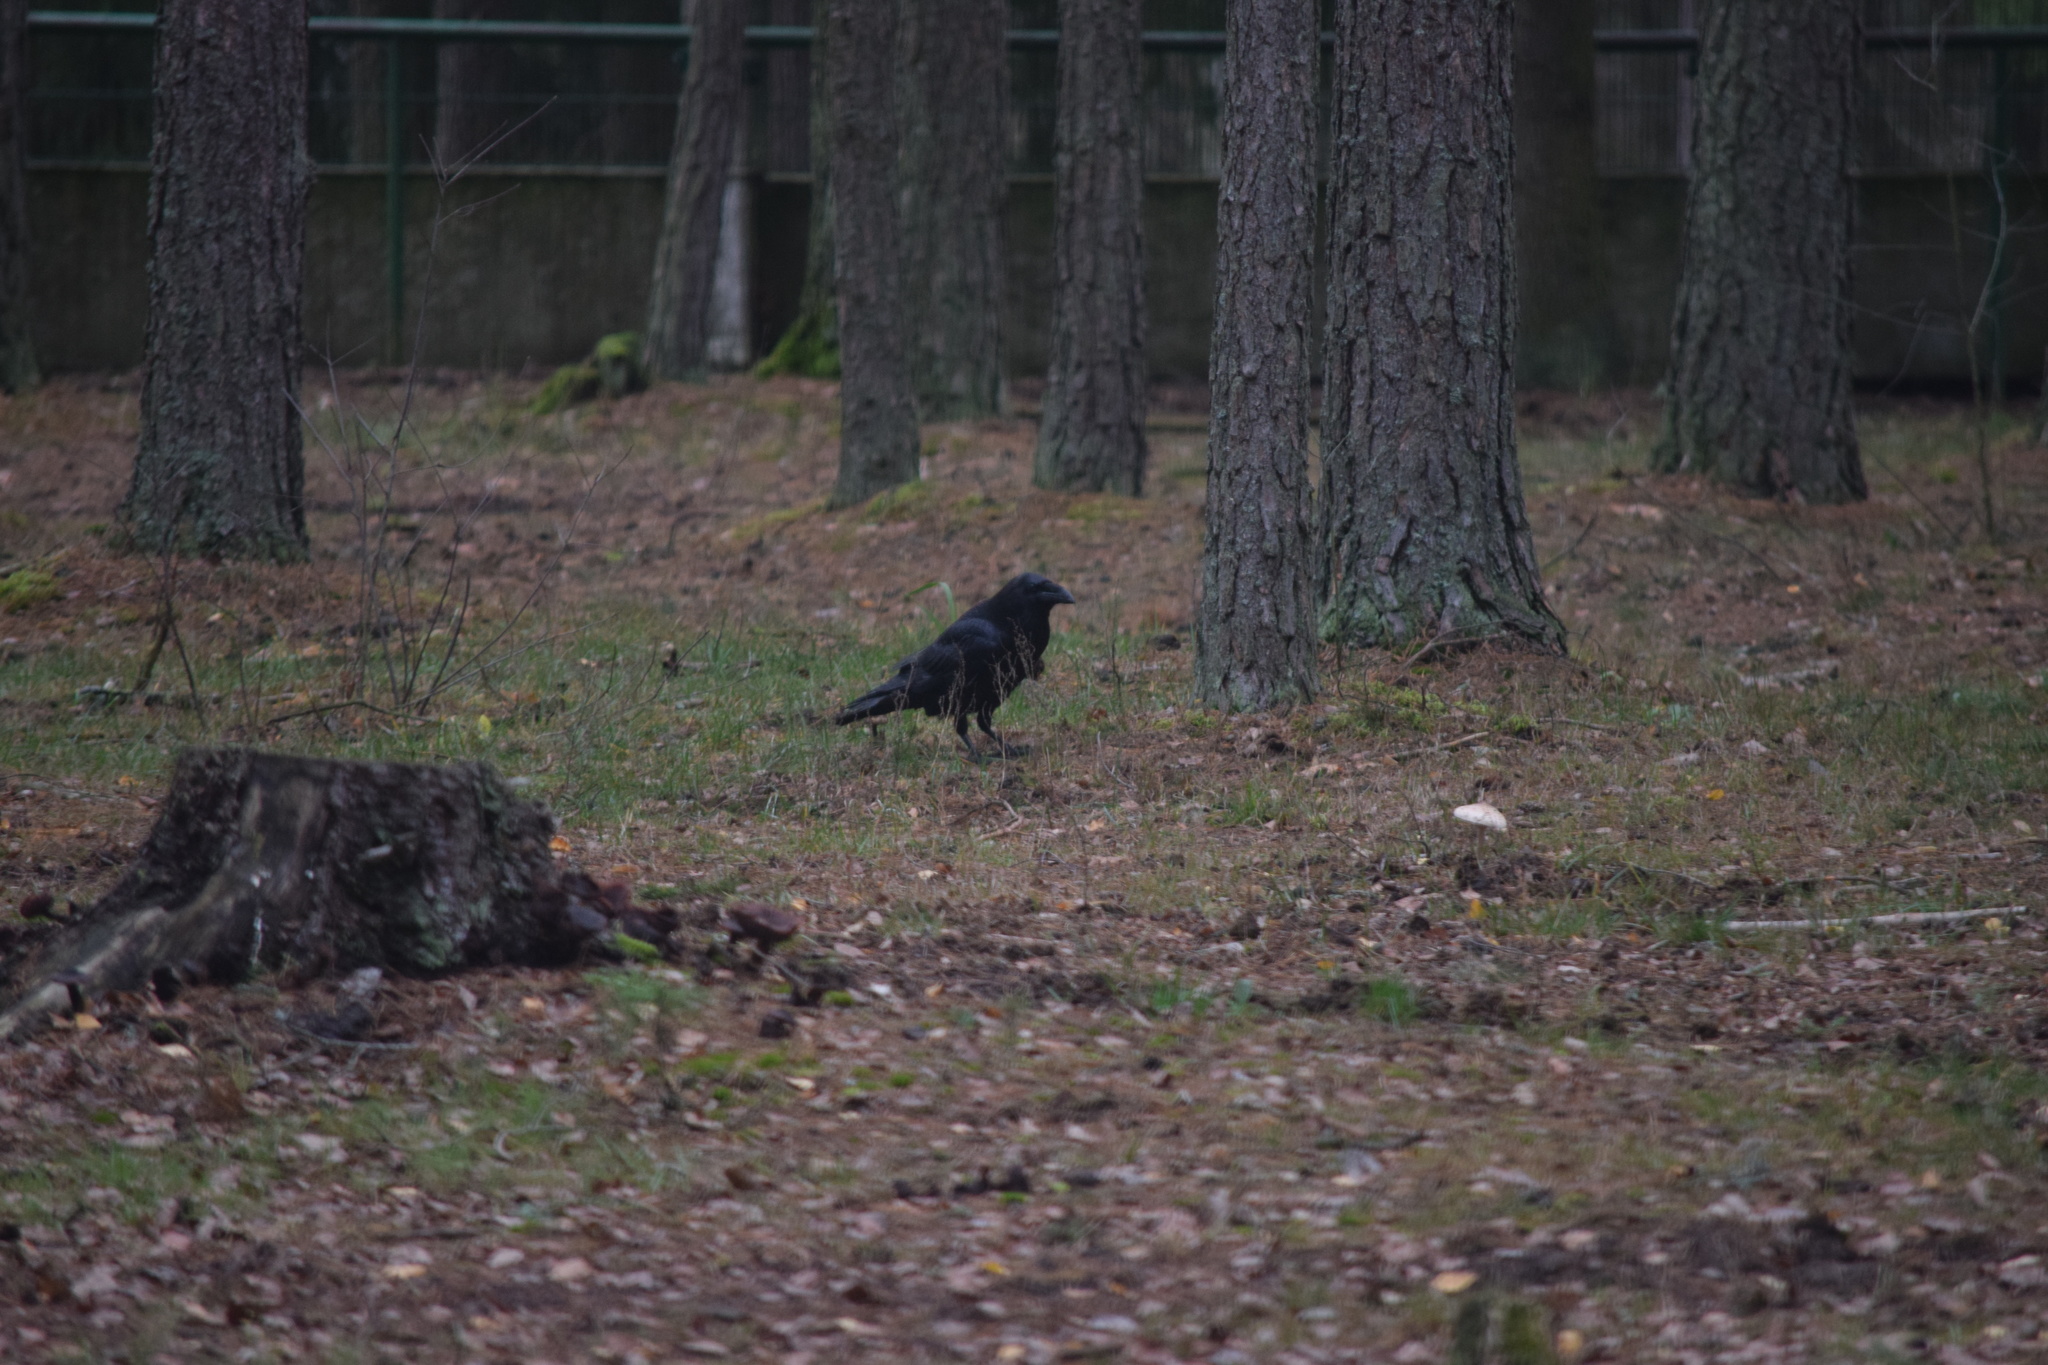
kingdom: Animalia
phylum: Chordata
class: Aves
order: Passeriformes
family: Corvidae
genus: Corvus
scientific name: Corvus corax
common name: Common raven
